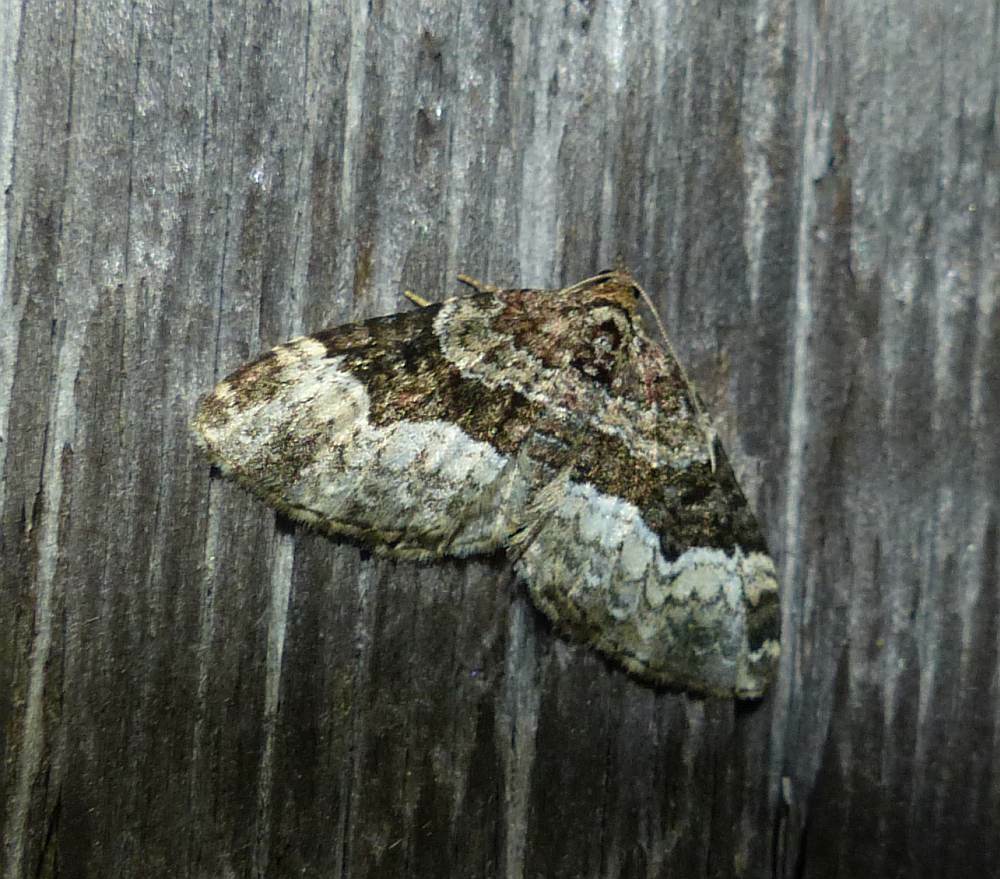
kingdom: Animalia
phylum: Arthropoda
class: Insecta
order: Lepidoptera
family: Geometridae
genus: Euphyia
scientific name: Euphyia intermediata
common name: Sharp-angled carpet
